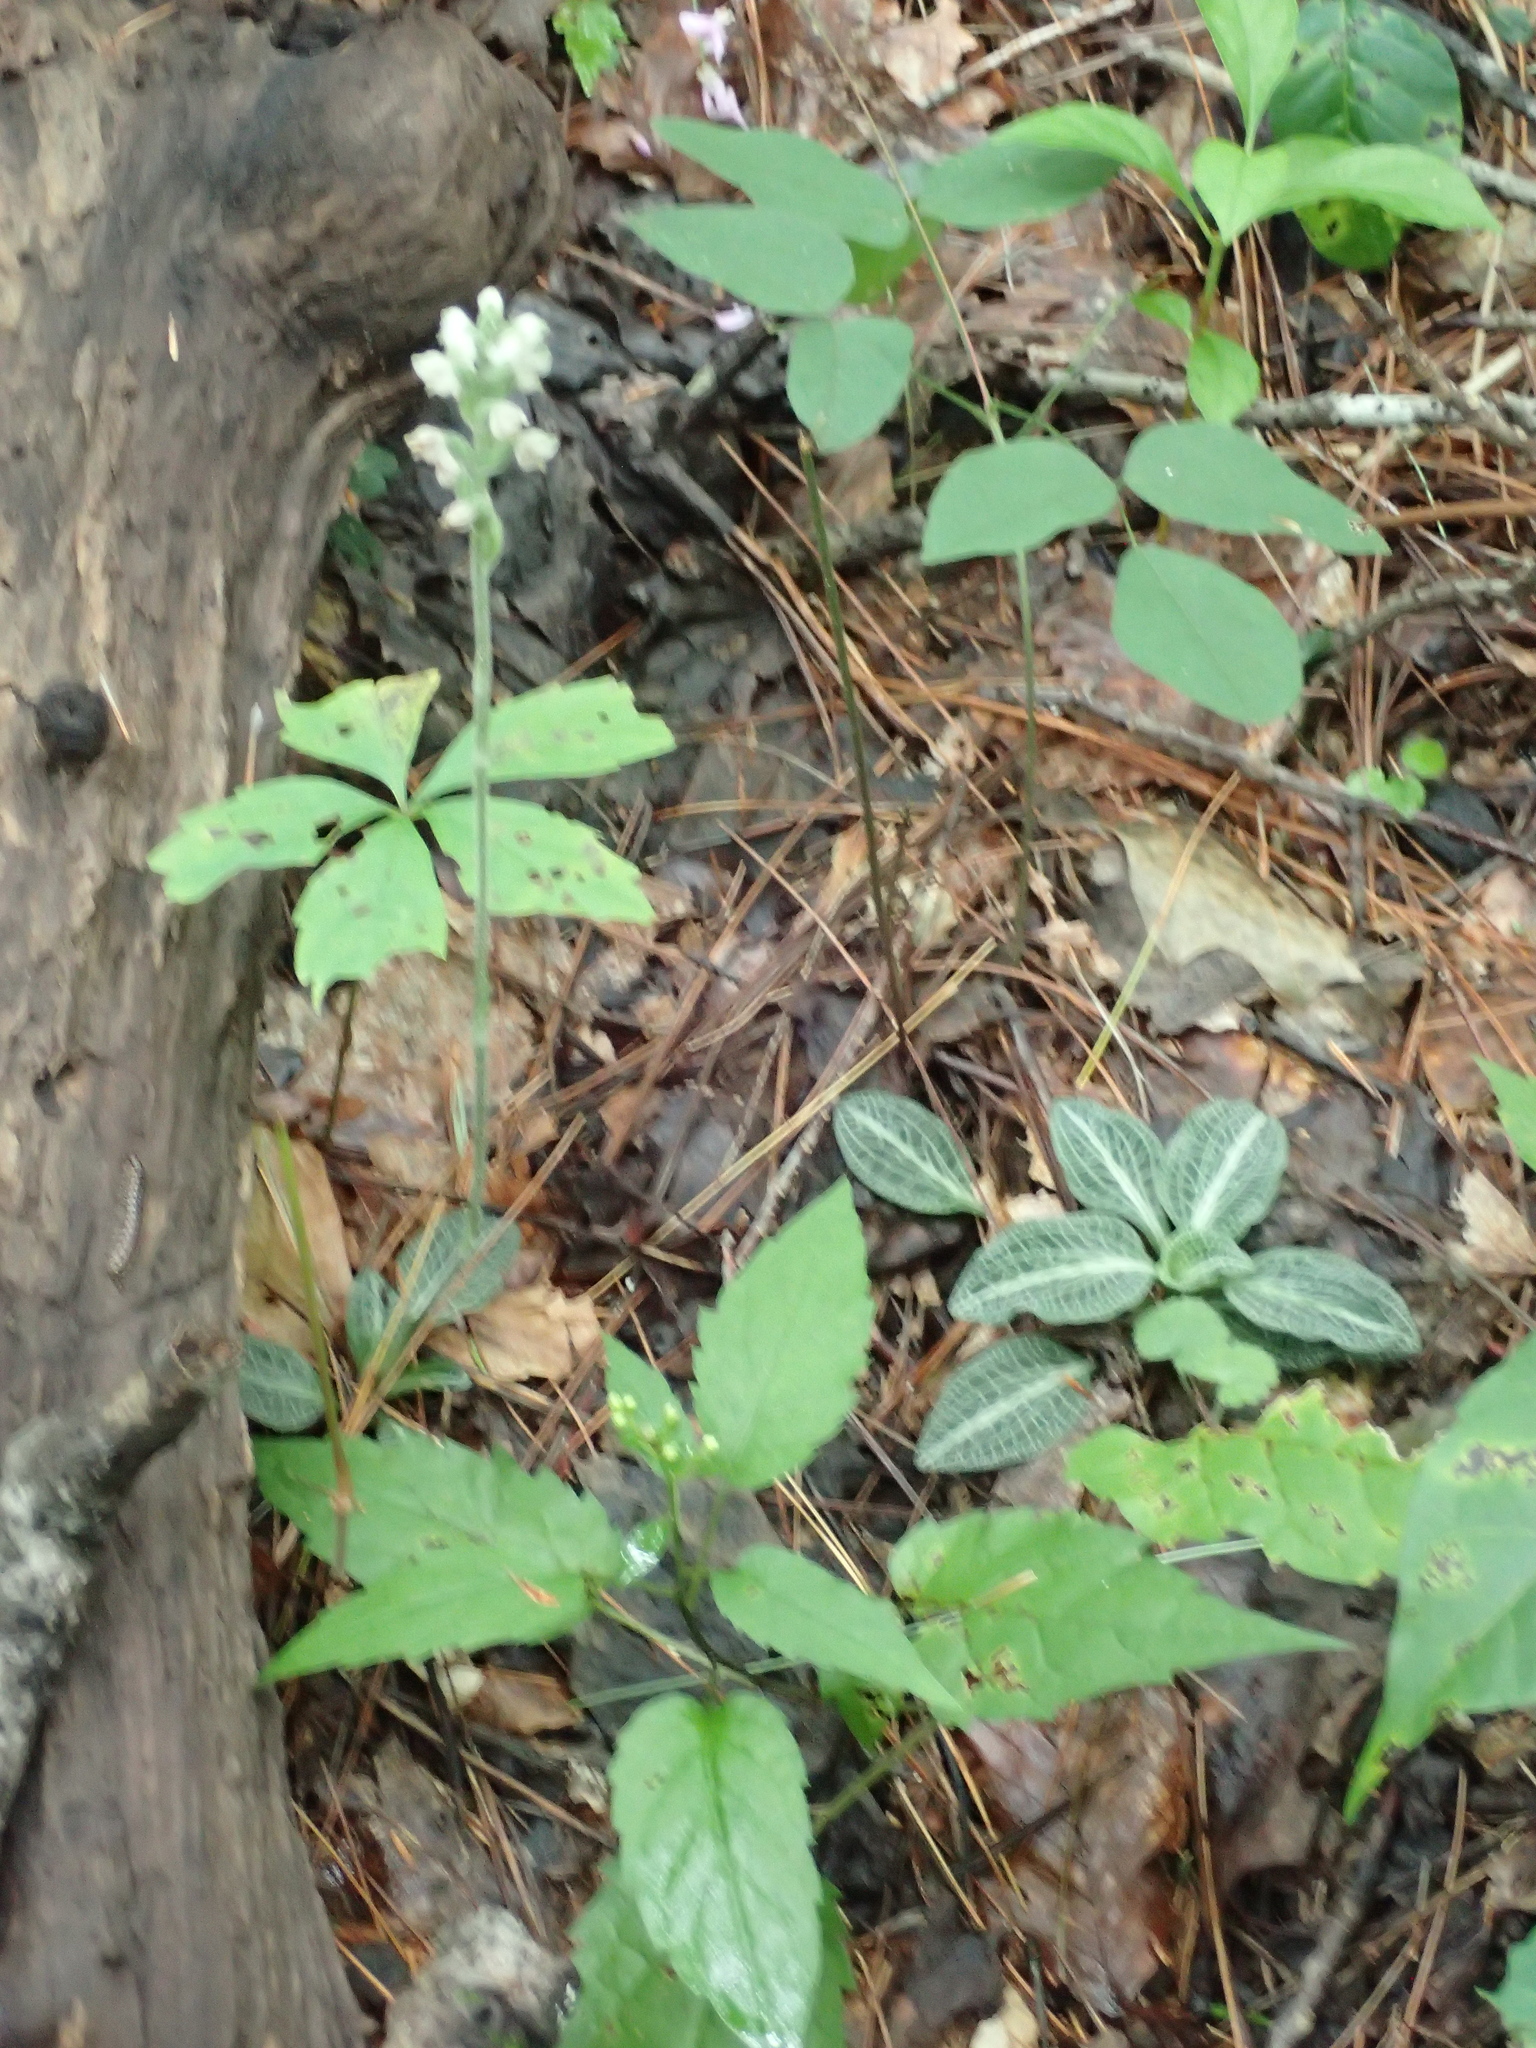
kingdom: Plantae
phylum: Tracheophyta
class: Liliopsida
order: Asparagales
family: Orchidaceae
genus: Goodyera
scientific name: Goodyera pubescens
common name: Downy rattlesnake-plantain
